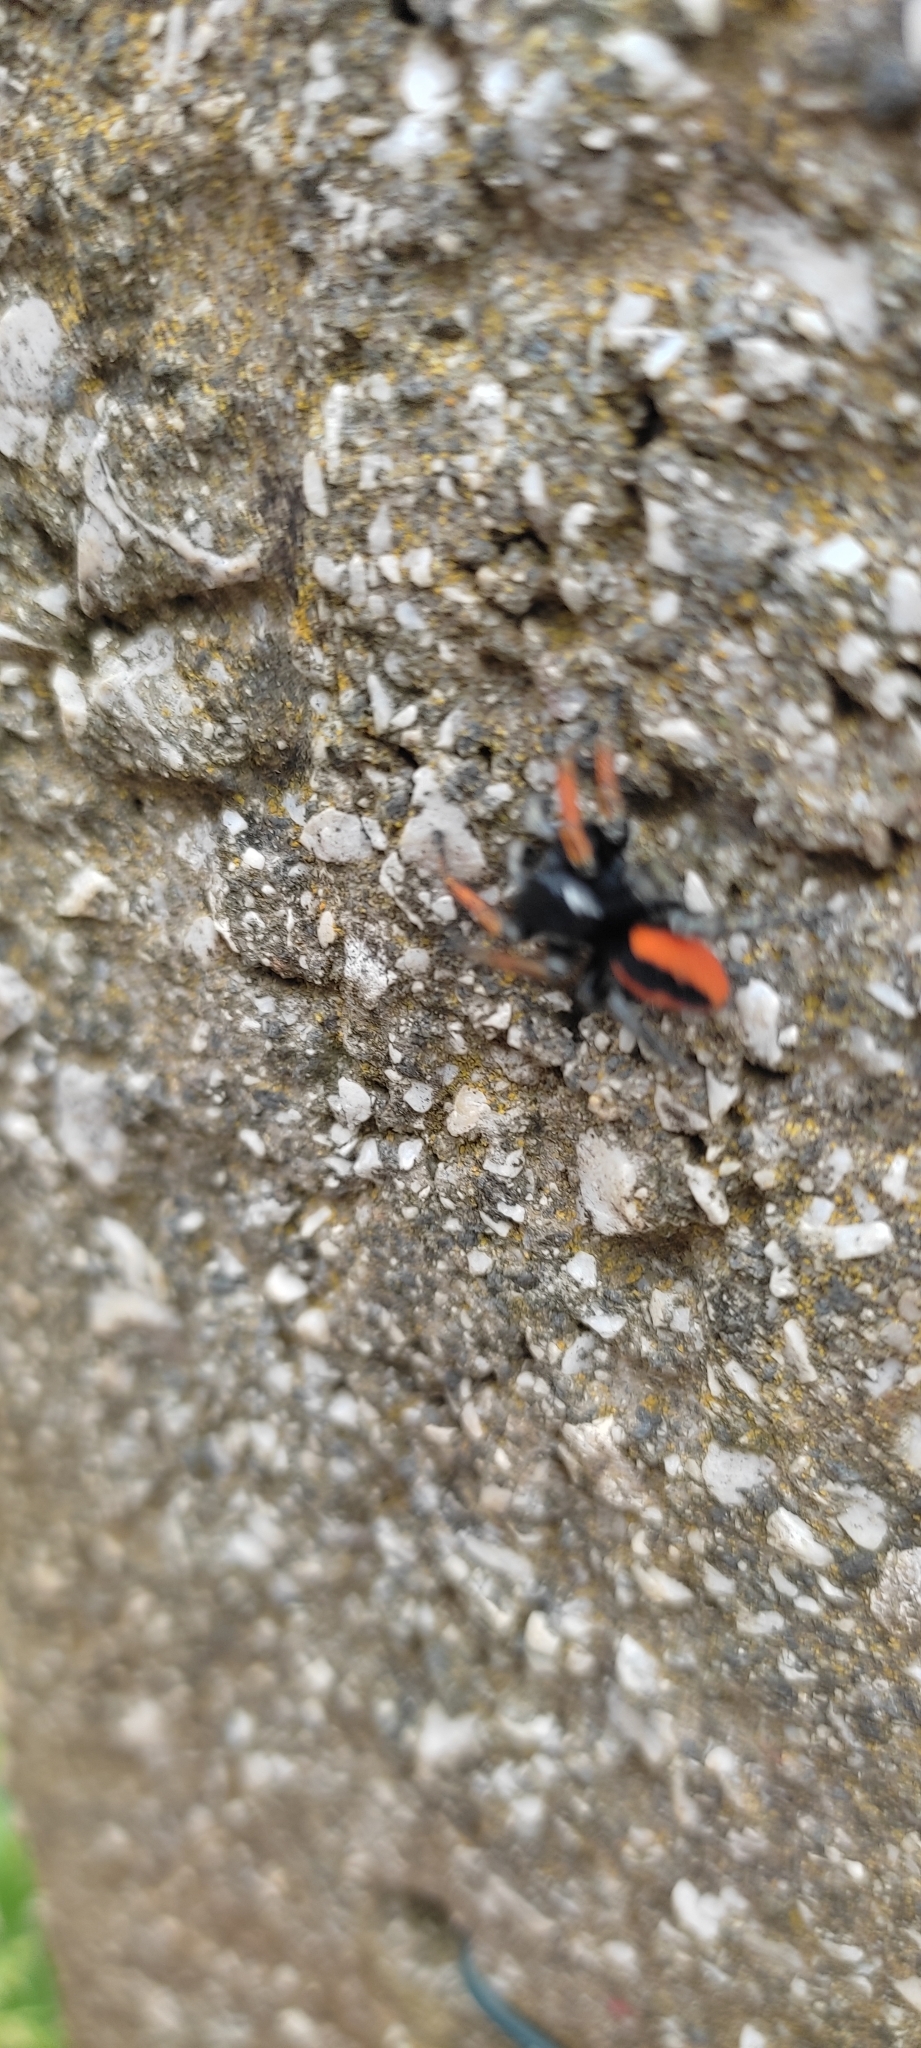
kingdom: Animalia
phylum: Arthropoda
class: Arachnida
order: Araneae
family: Salticidae
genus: Philaeus
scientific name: Philaeus chrysops
